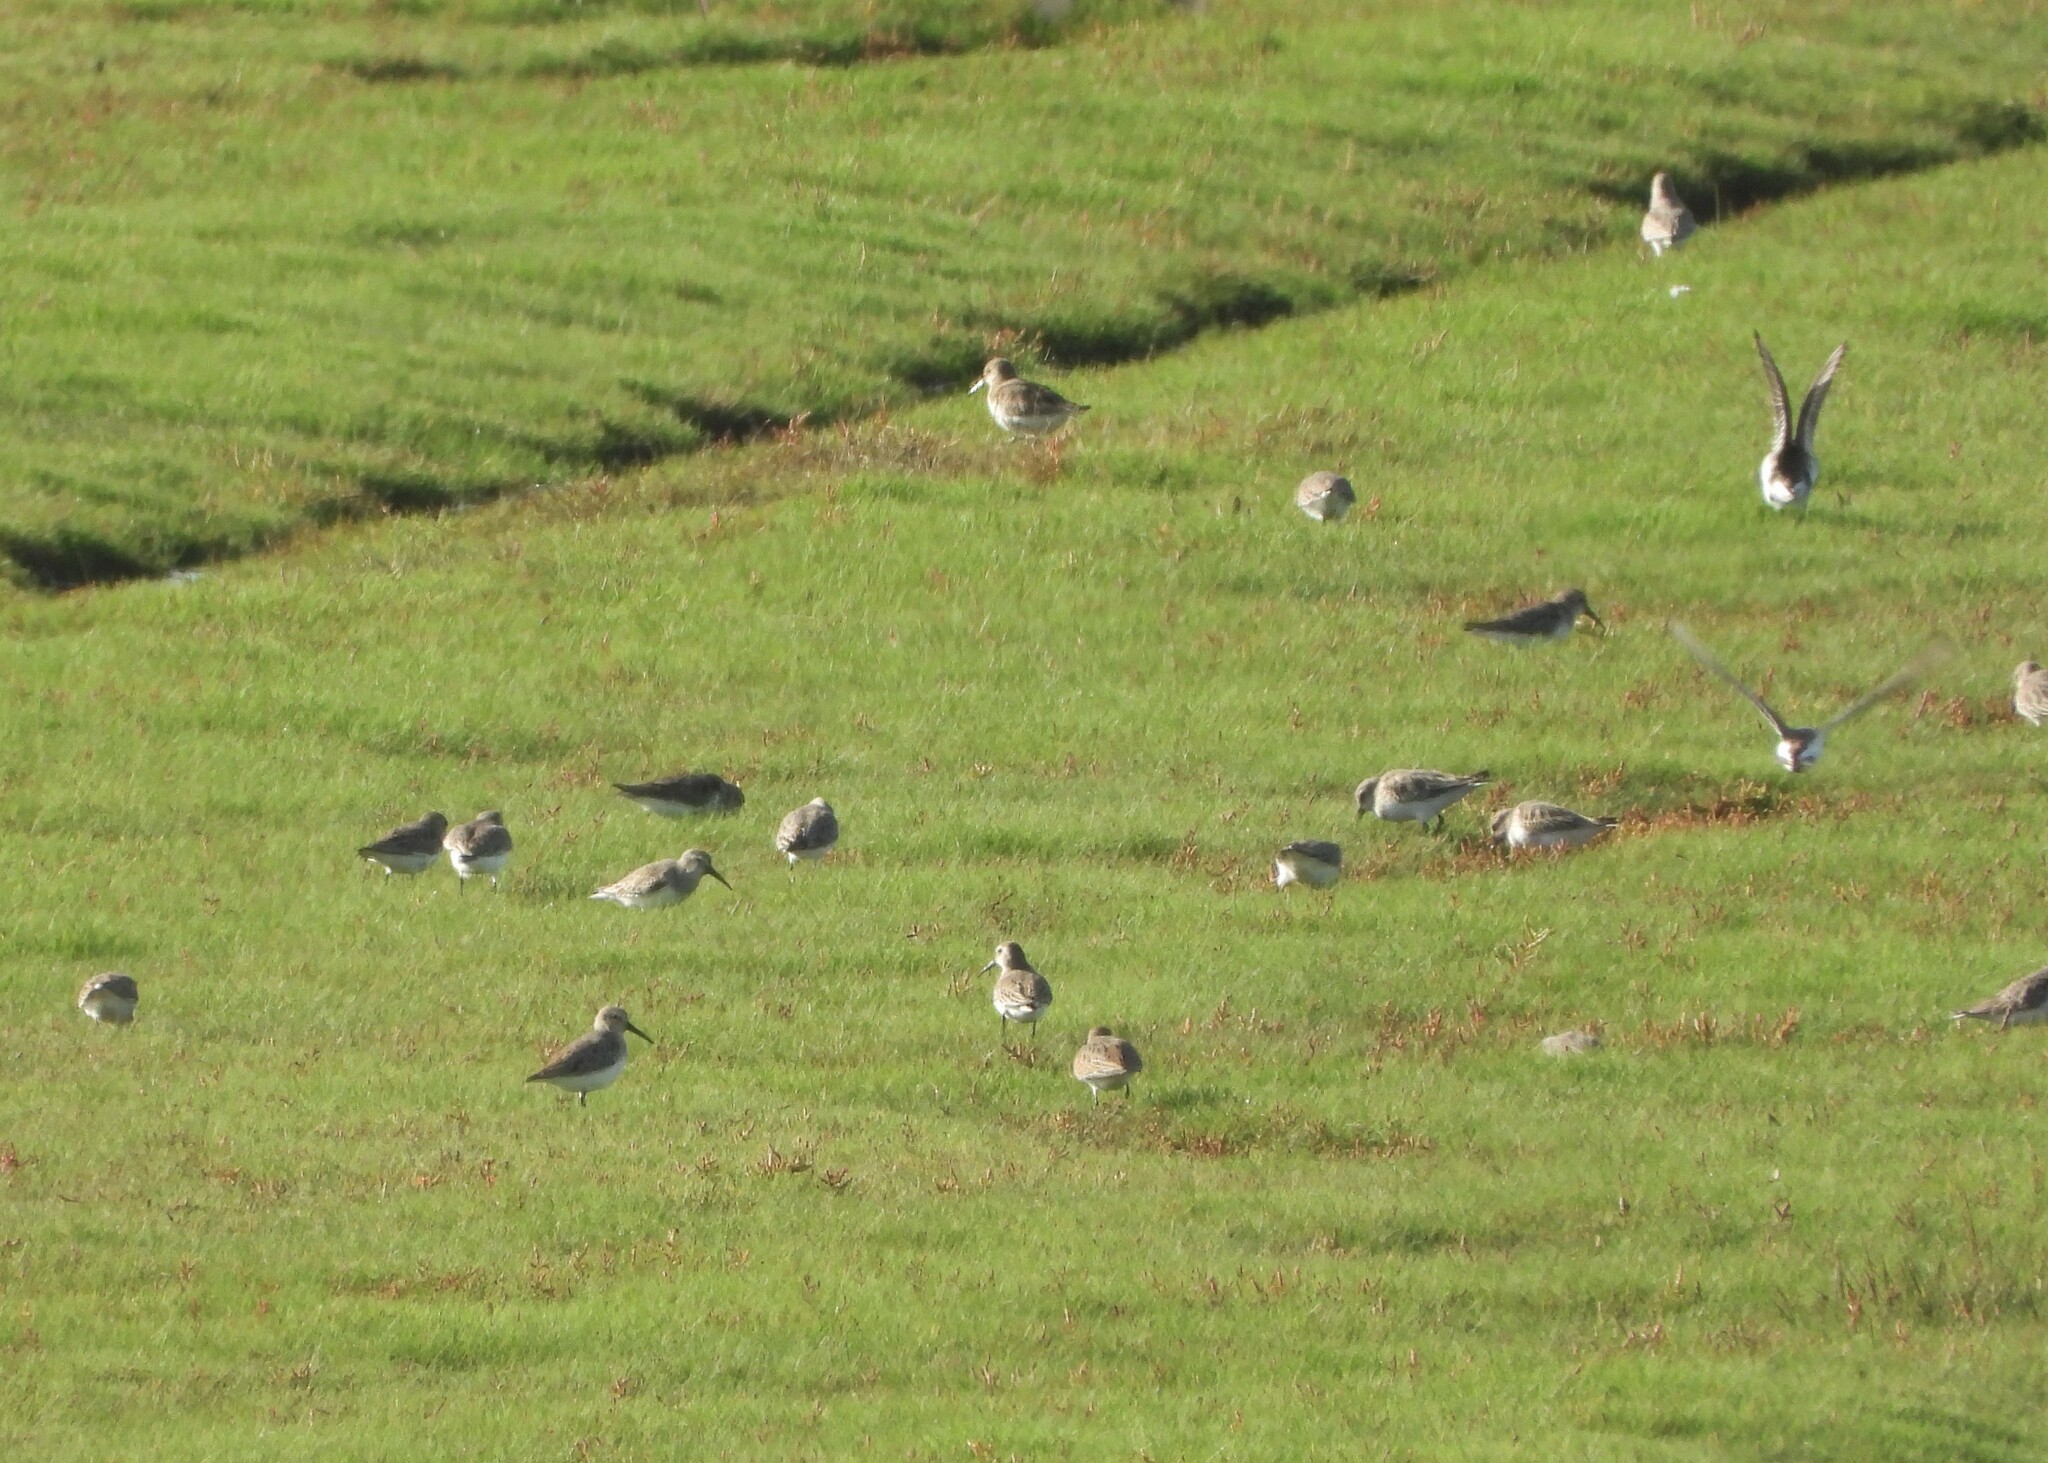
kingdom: Animalia
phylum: Chordata
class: Aves
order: Charadriiformes
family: Scolopacidae
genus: Calidris
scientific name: Calidris alpina
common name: Dunlin
